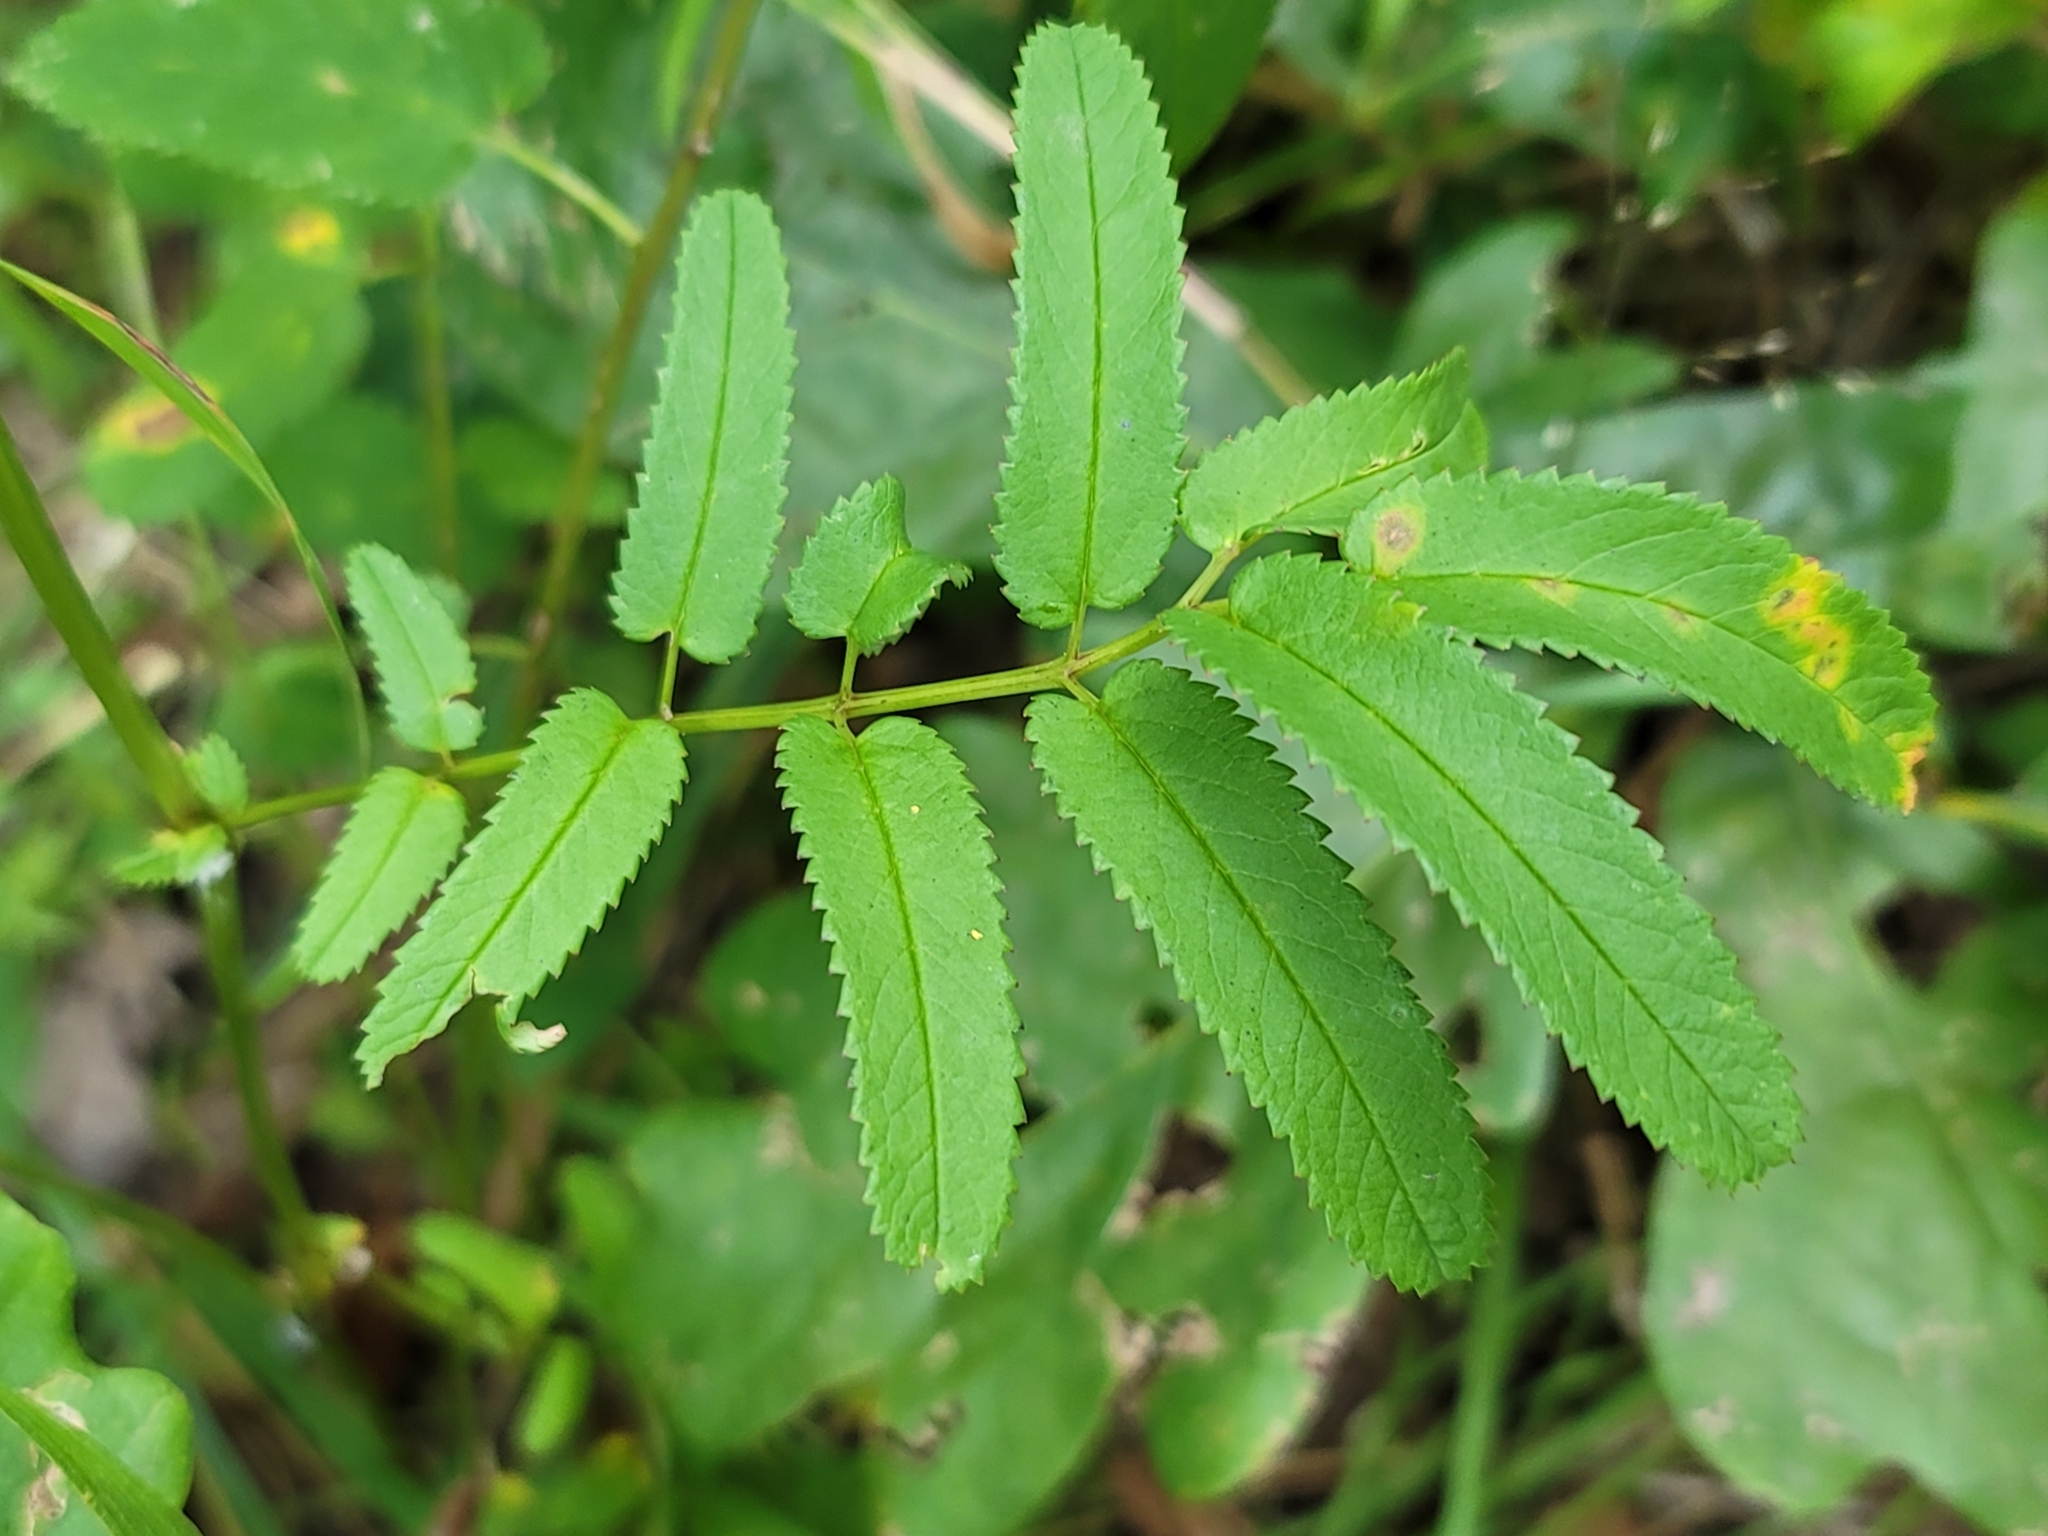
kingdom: Plantae
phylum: Tracheophyta
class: Magnoliopsida
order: Rosales
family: Rosaceae
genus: Sanguisorba
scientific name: Sanguisorba canadensis
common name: White burnet
